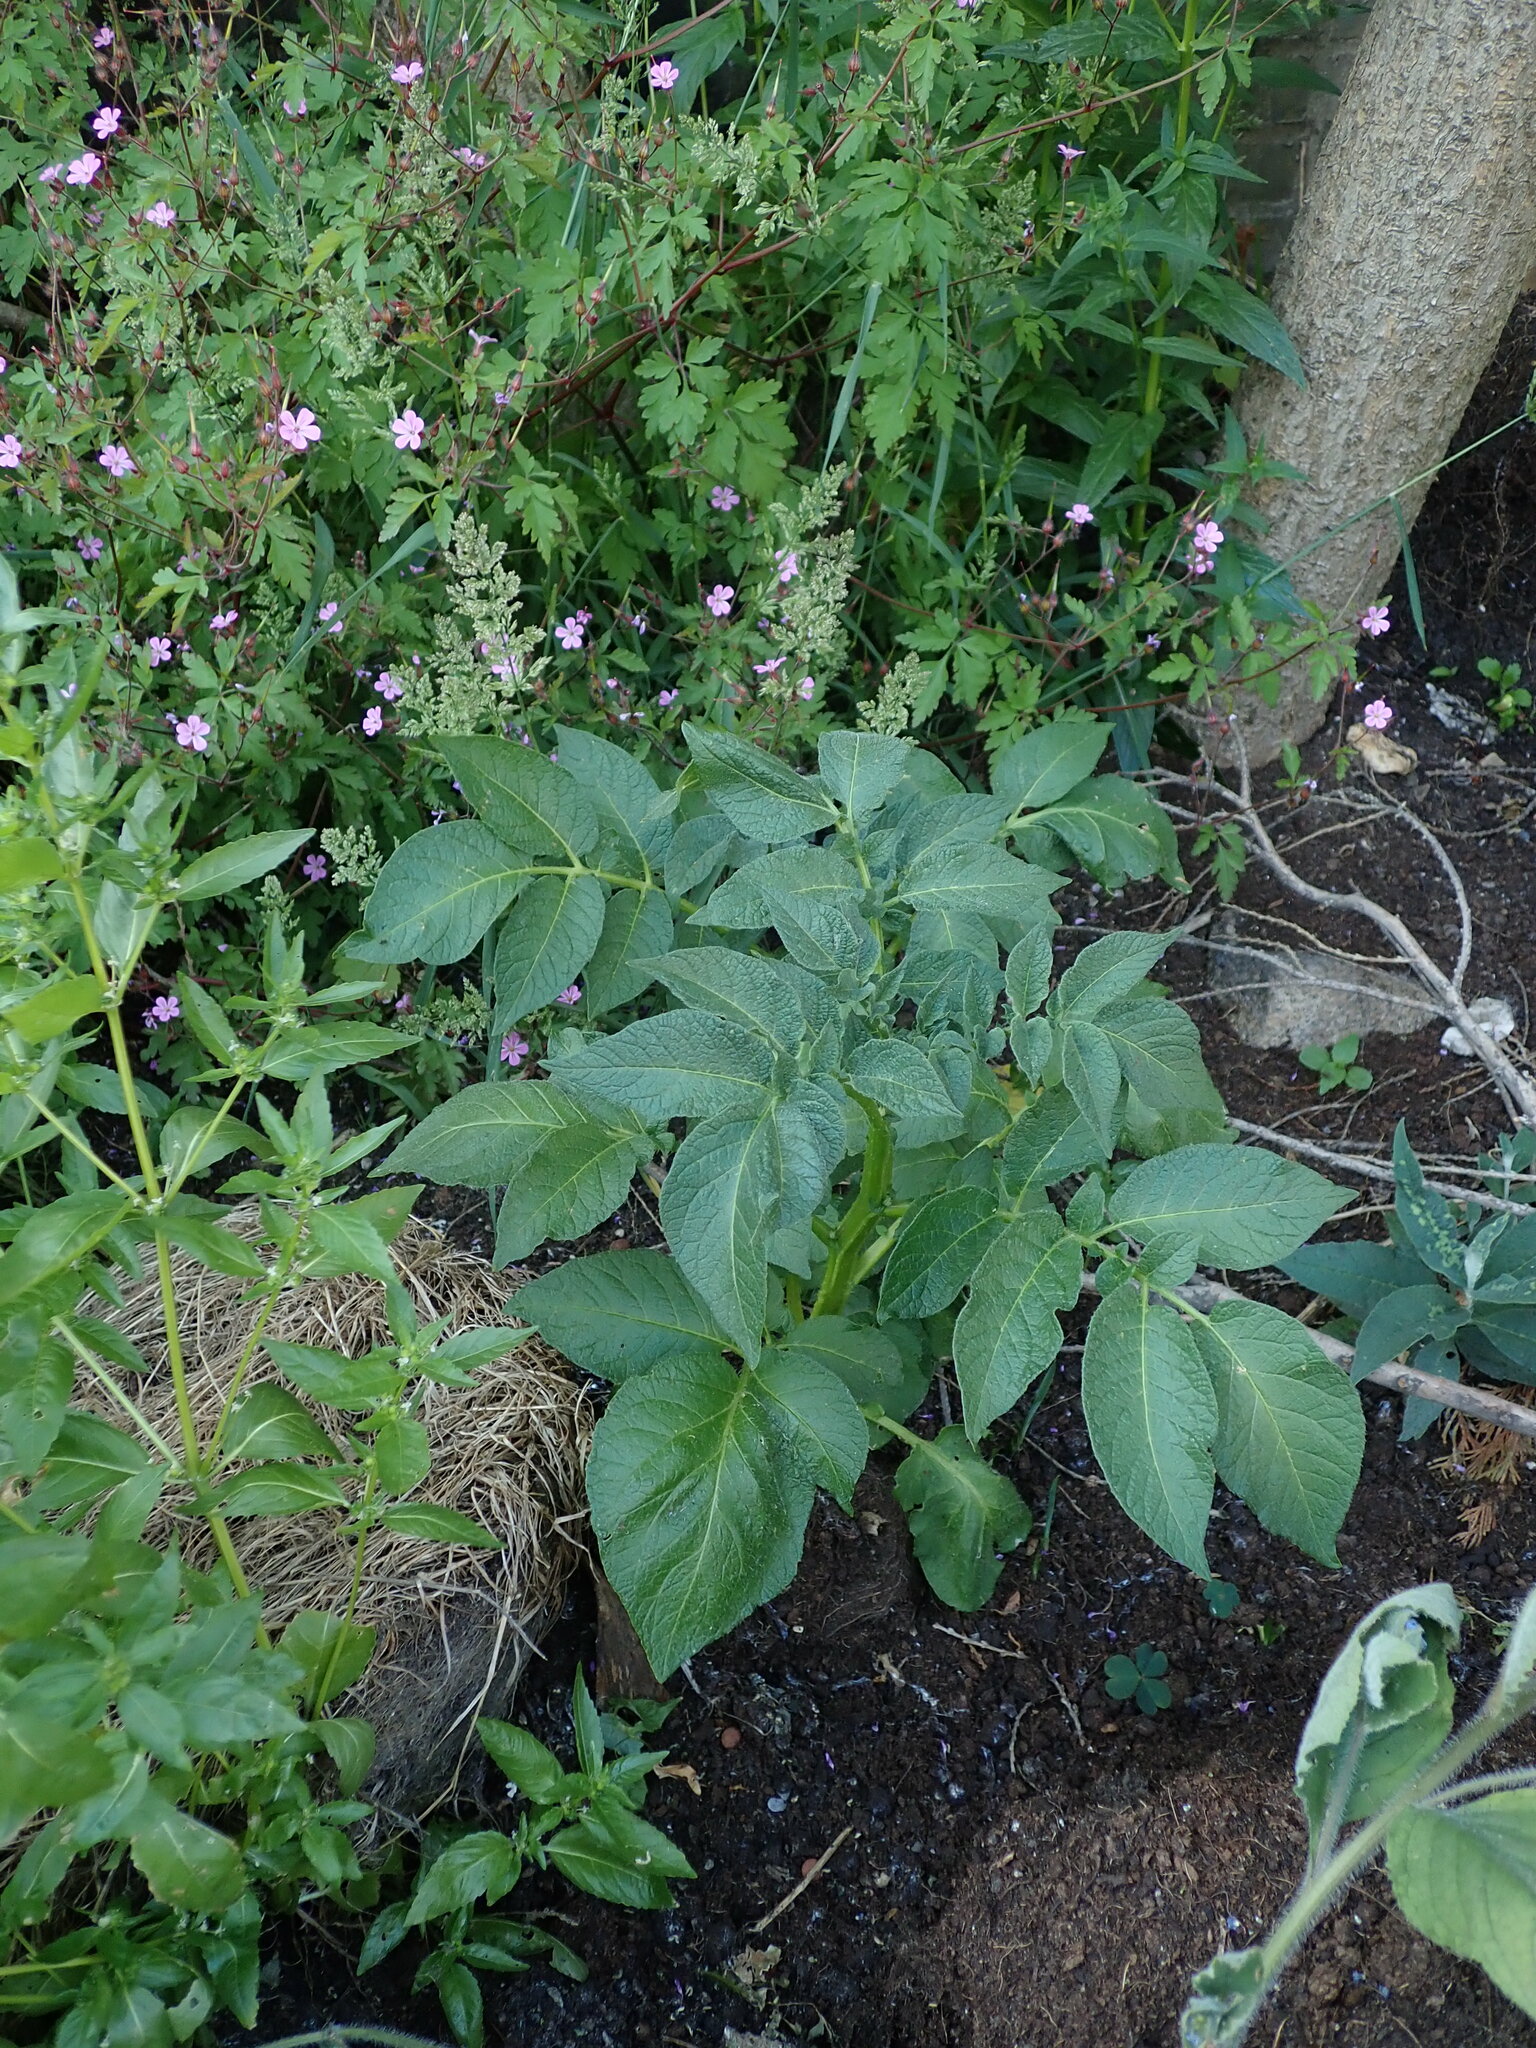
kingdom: Plantae
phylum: Tracheophyta
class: Magnoliopsida
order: Solanales
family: Solanaceae
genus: Solanum
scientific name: Solanum tuberosum
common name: Potato
